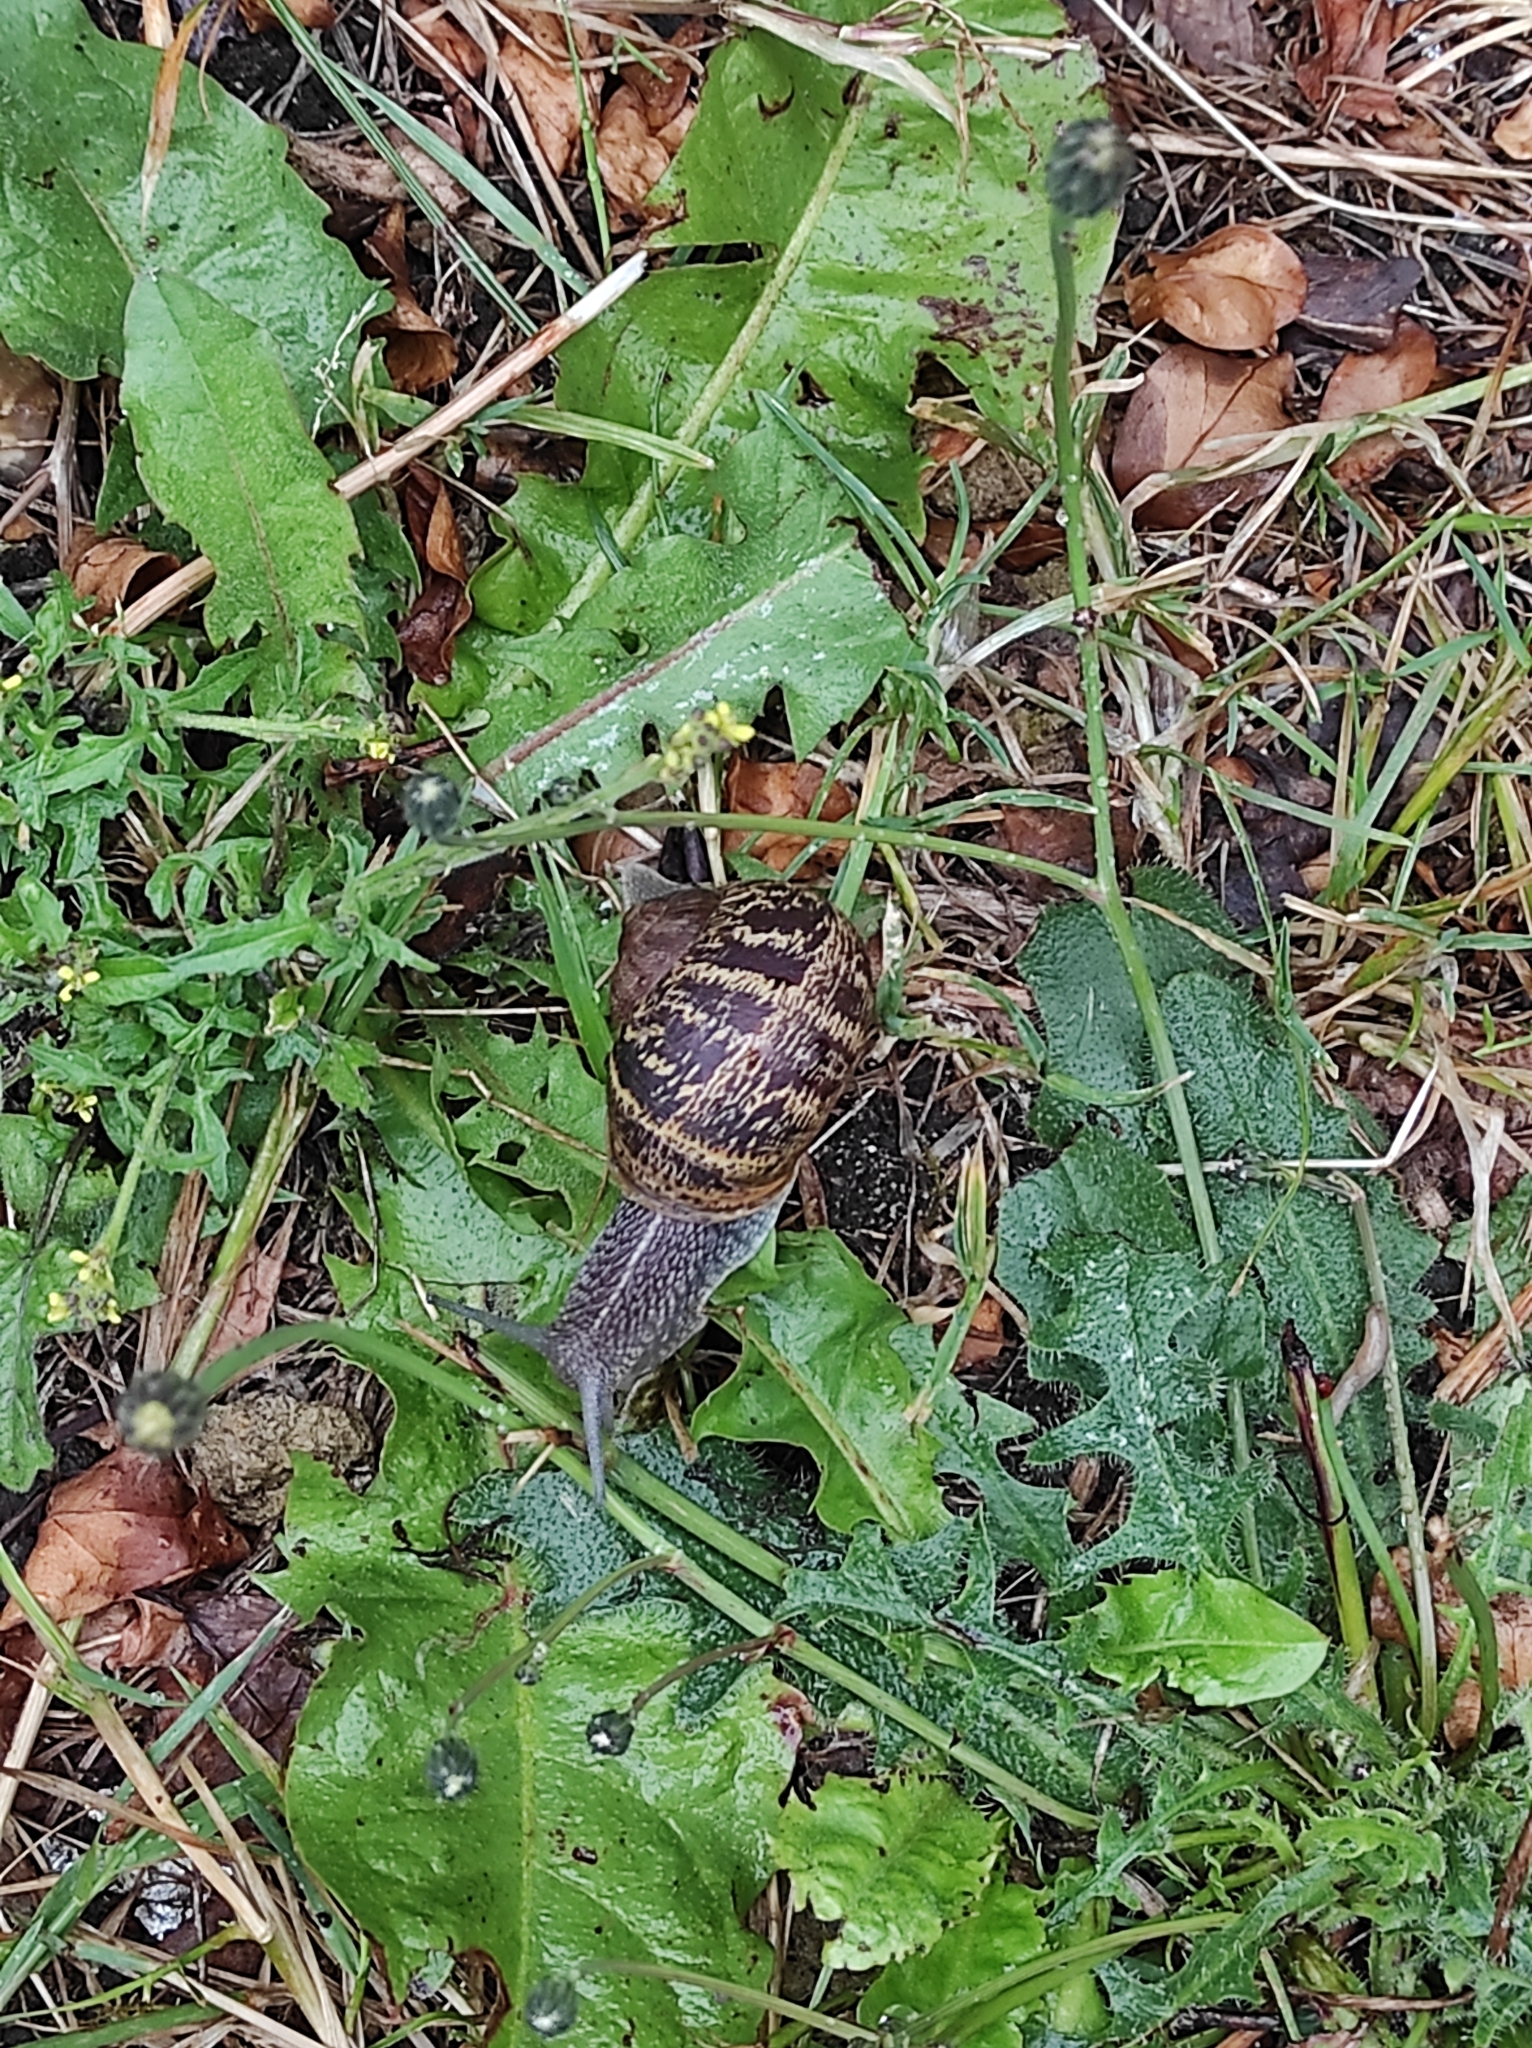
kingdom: Animalia
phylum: Mollusca
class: Gastropoda
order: Stylommatophora
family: Helicidae
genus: Cornu
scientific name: Cornu aspersum
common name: Brown garden snail
